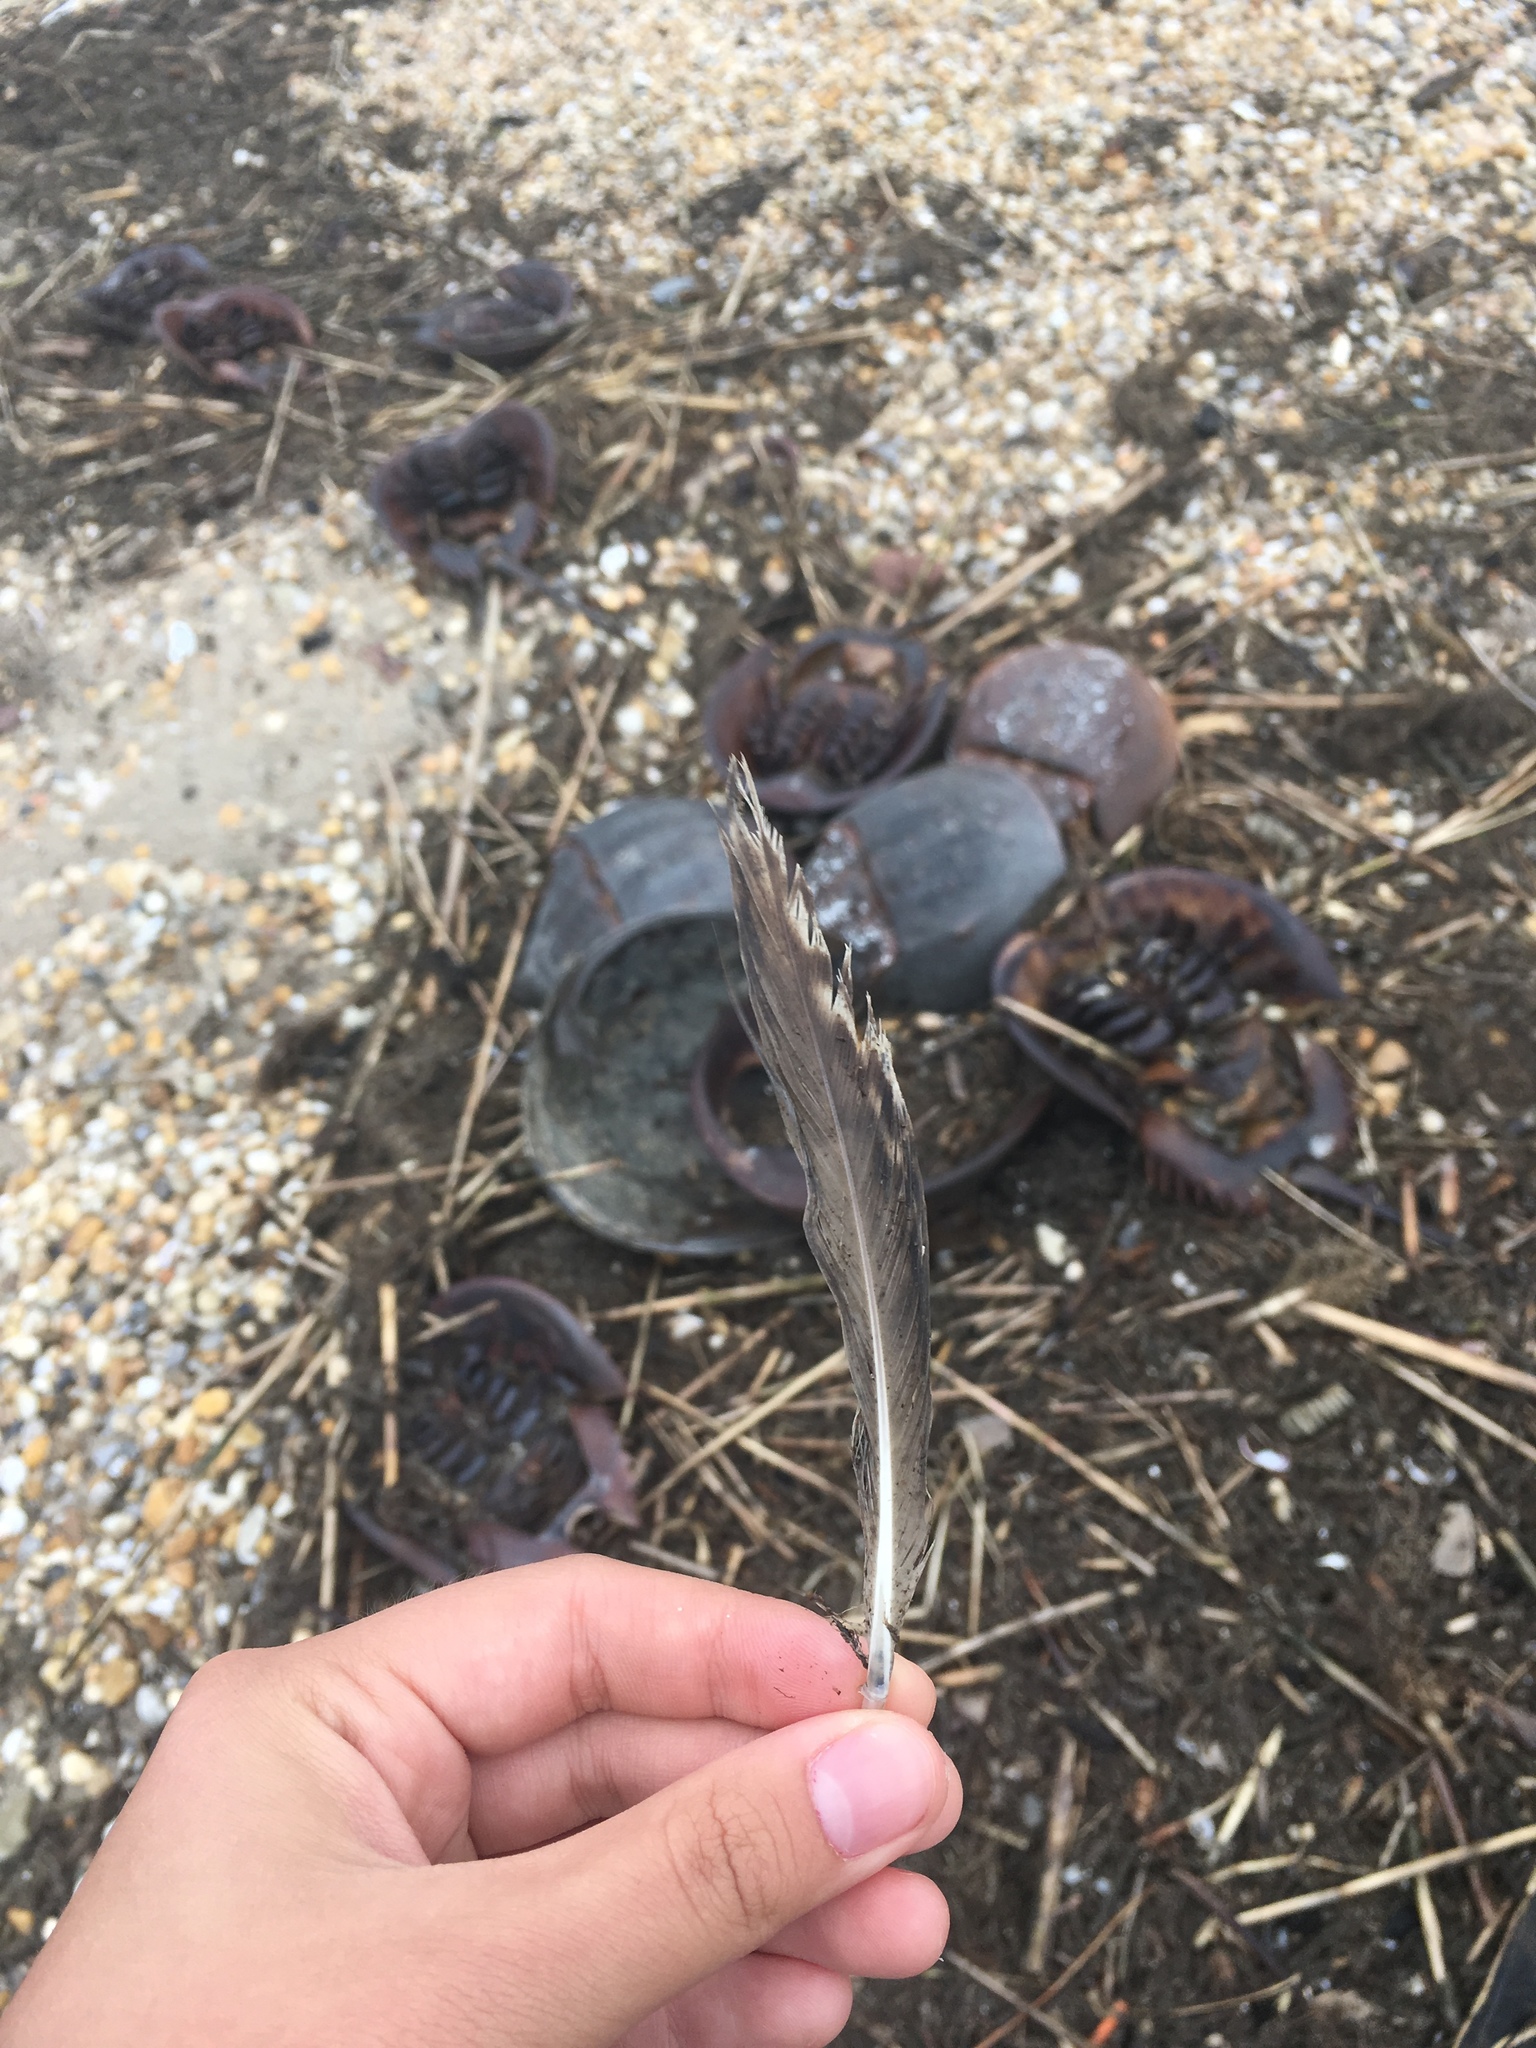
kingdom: Animalia
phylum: Chordata
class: Aves
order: Charadriiformes
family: Laridae
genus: Larus
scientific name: Larus fuscus
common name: Lesser black-backed gull
